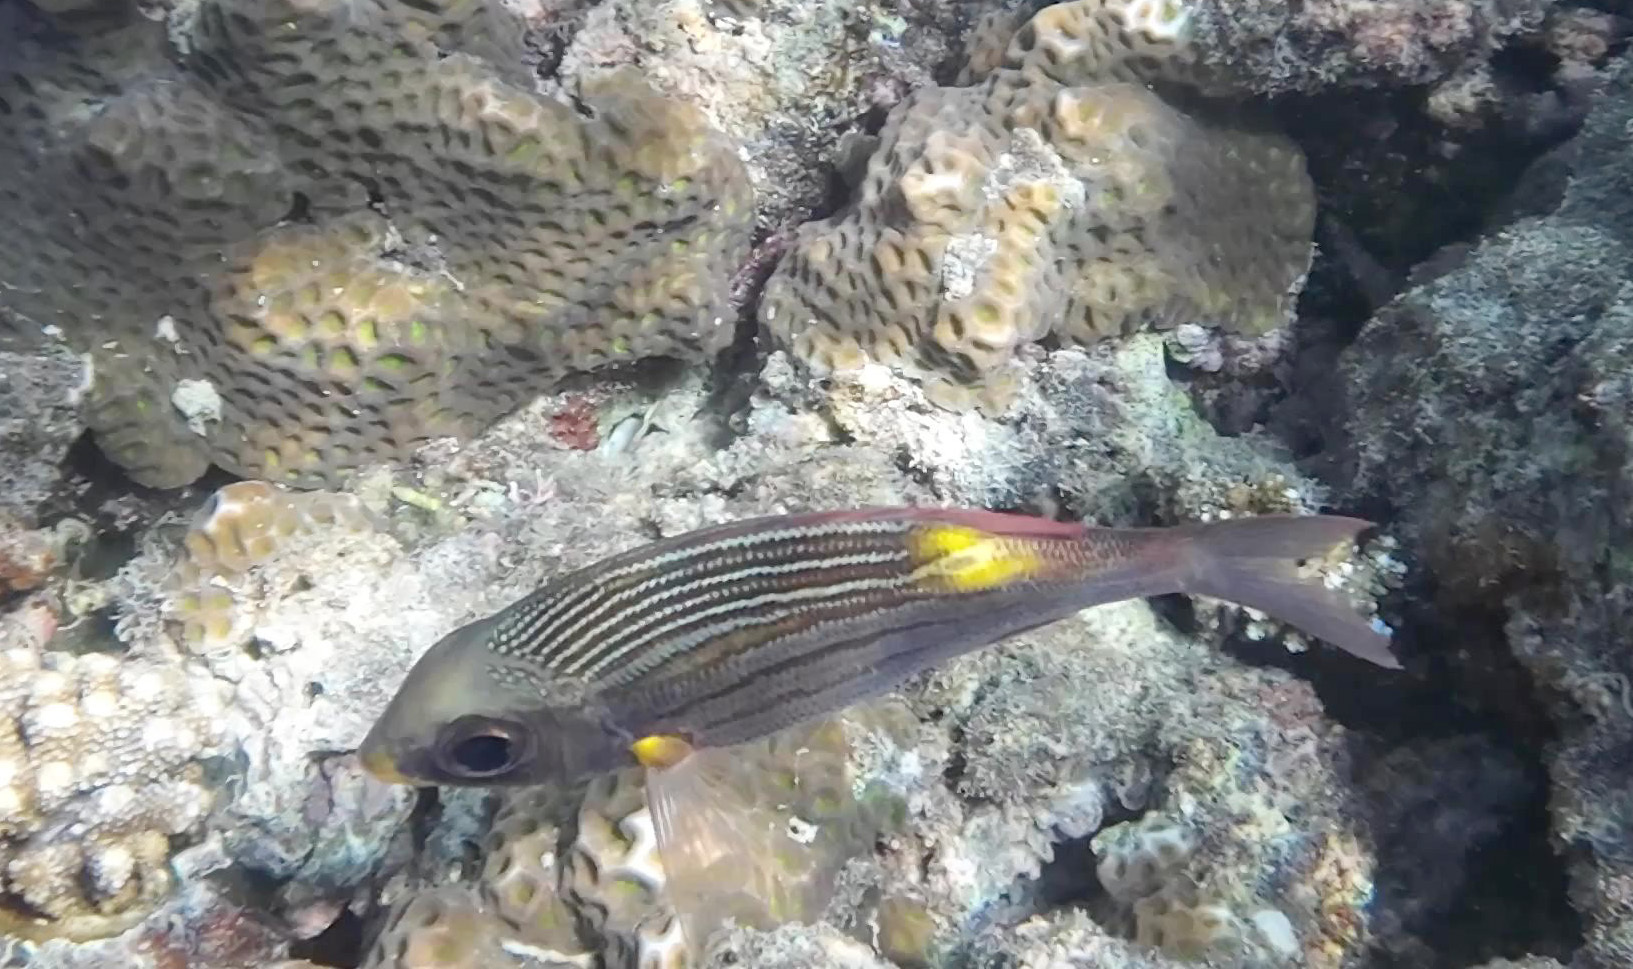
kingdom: Animalia
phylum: Chordata
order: Perciformes
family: Lethrinidae
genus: Gnathodentex
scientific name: Gnathodentex aureolineatus
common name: Gold-lined sea bream
